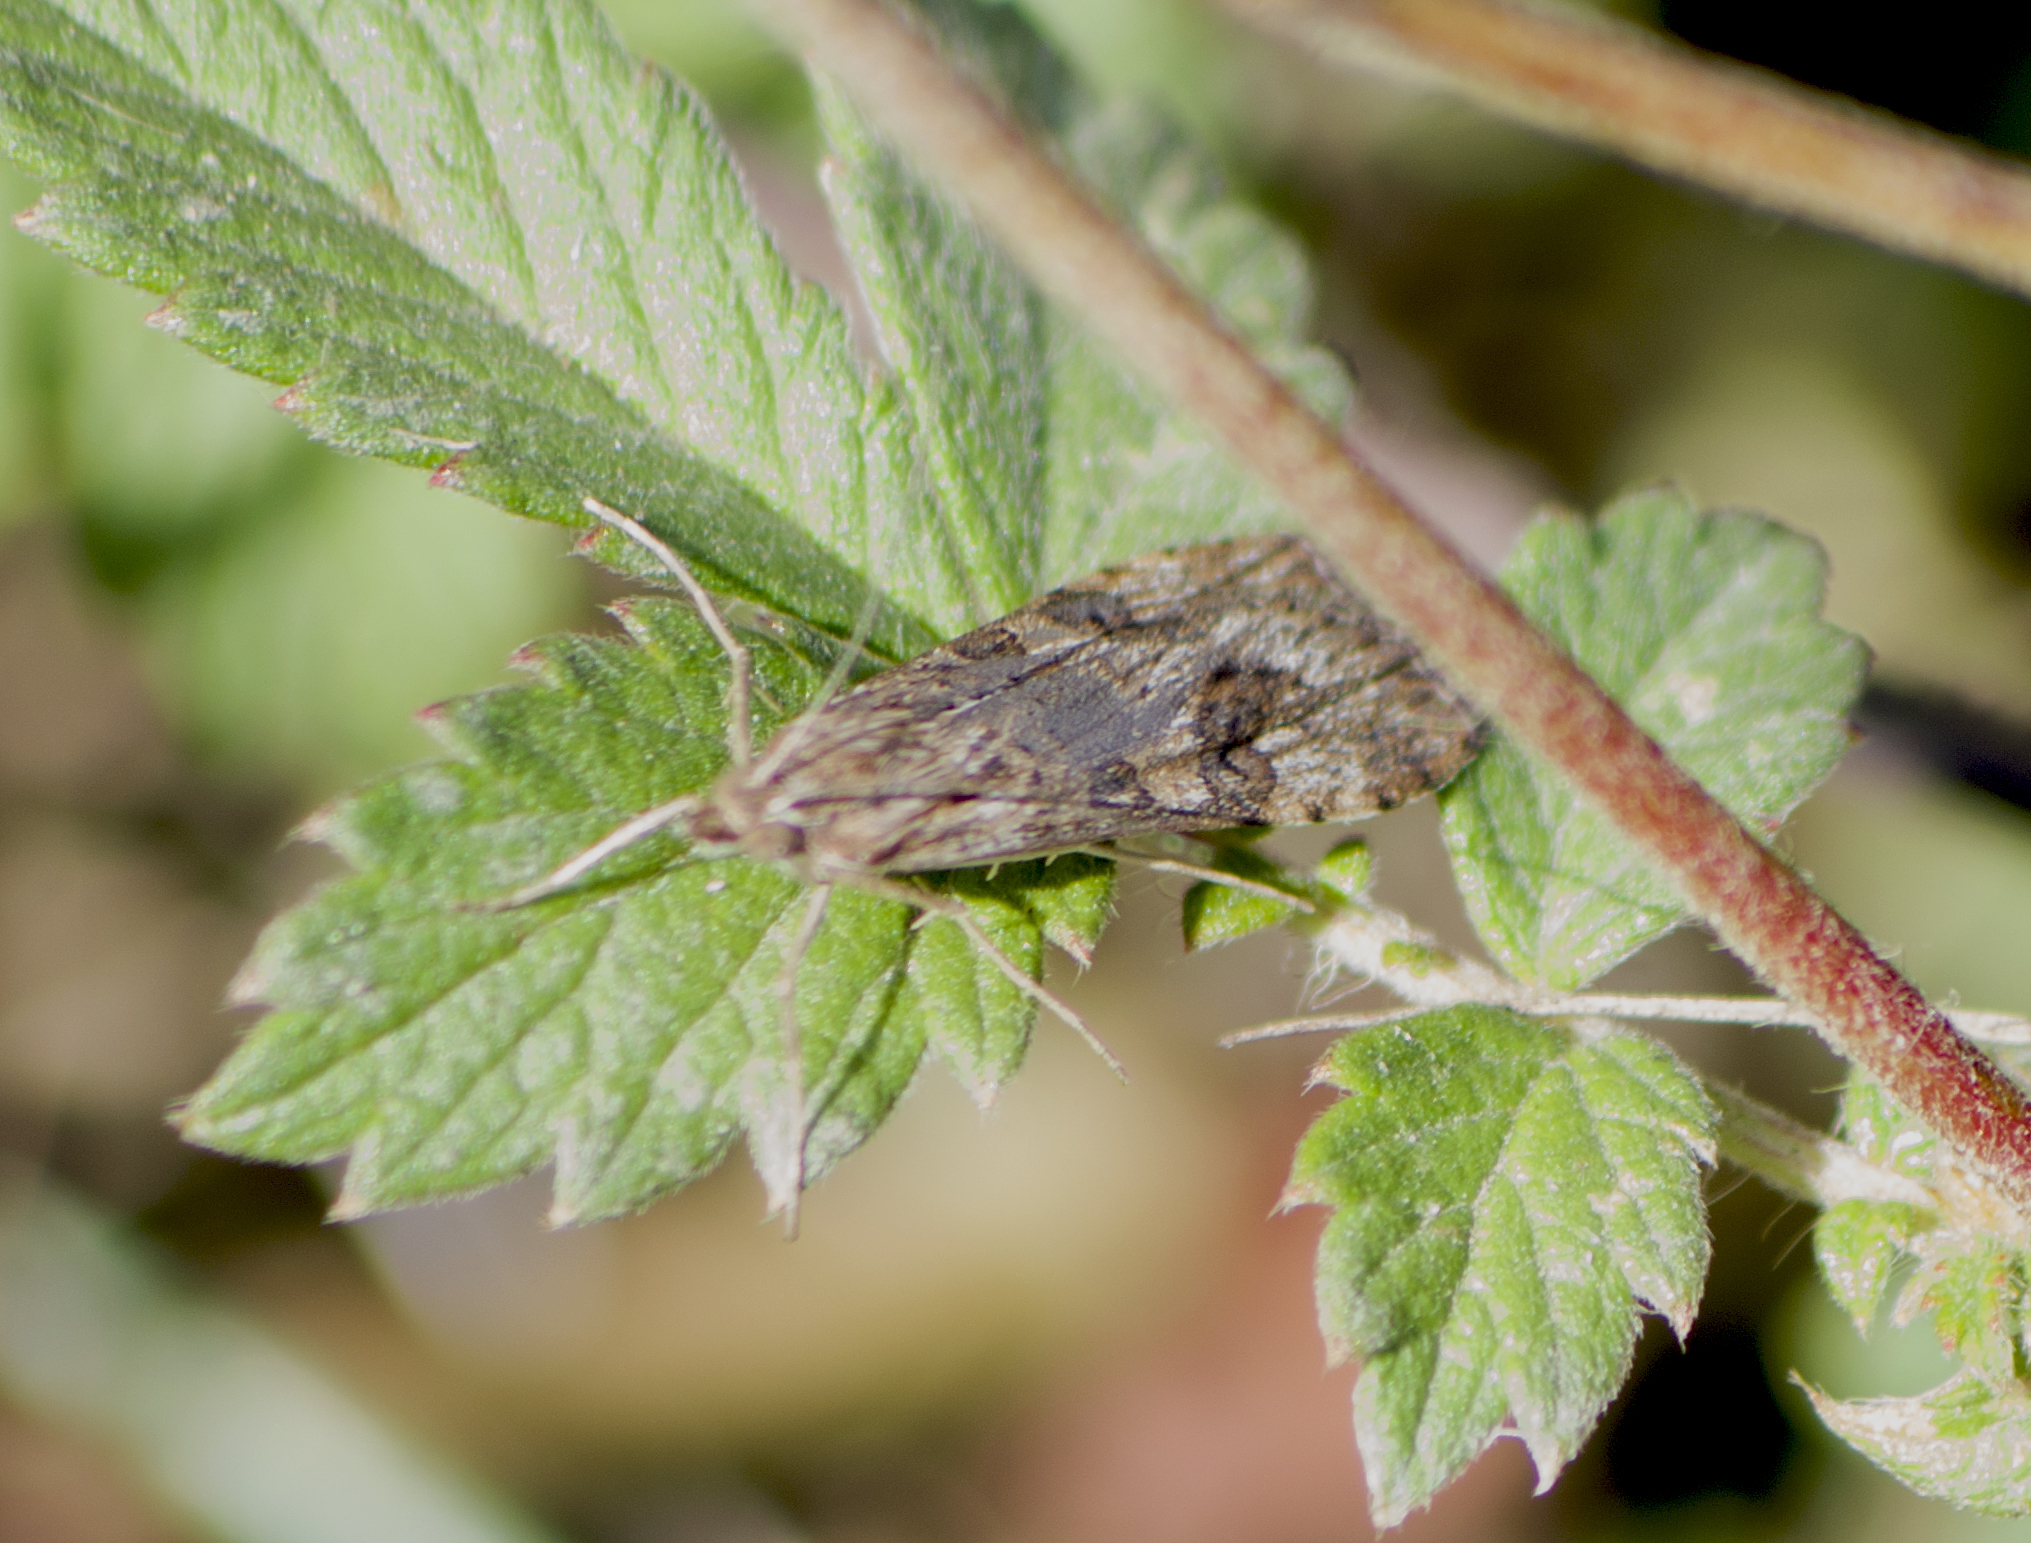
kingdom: Animalia
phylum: Arthropoda
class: Insecta
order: Lepidoptera
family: Crambidae
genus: Nomophila
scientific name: Nomophila noctuella
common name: Rush veneer
